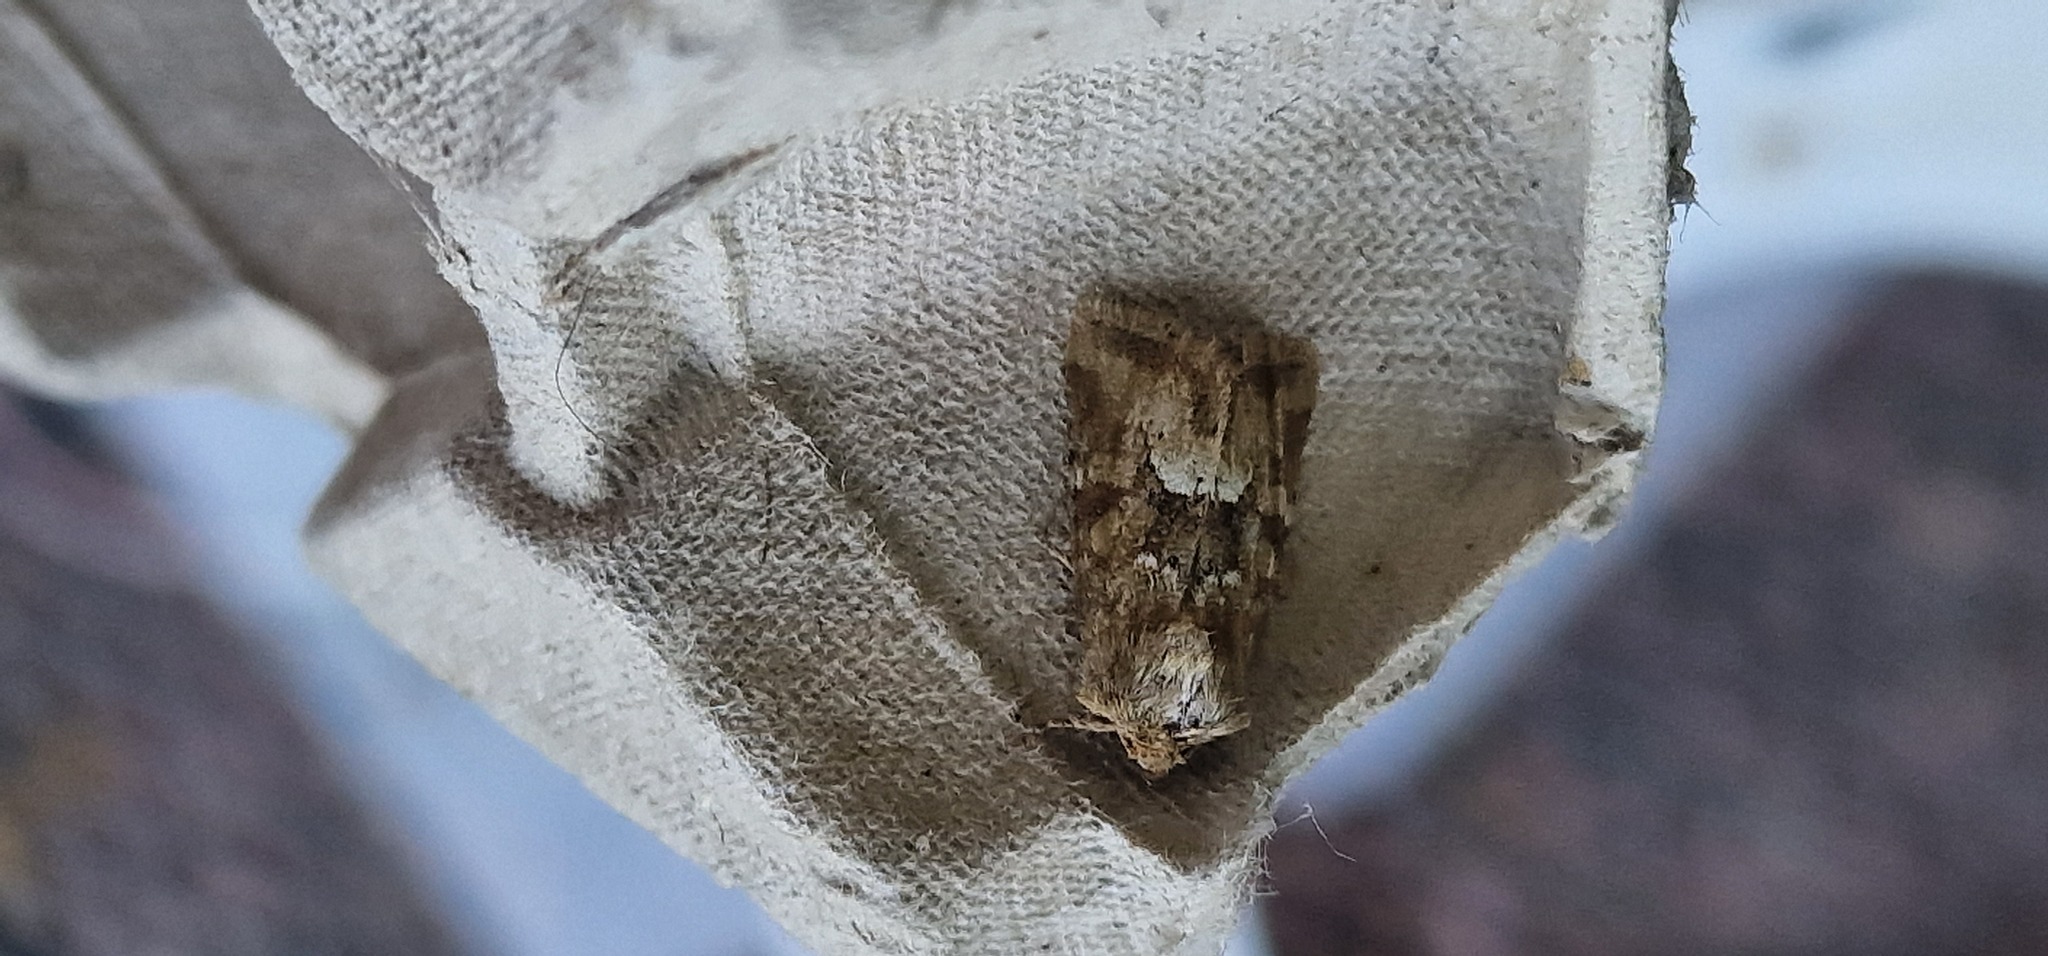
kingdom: Animalia
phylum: Arthropoda
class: Insecta
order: Lepidoptera
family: Noctuidae
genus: Oligia
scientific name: Oligia fasciuncula
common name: Middle-barred minor
